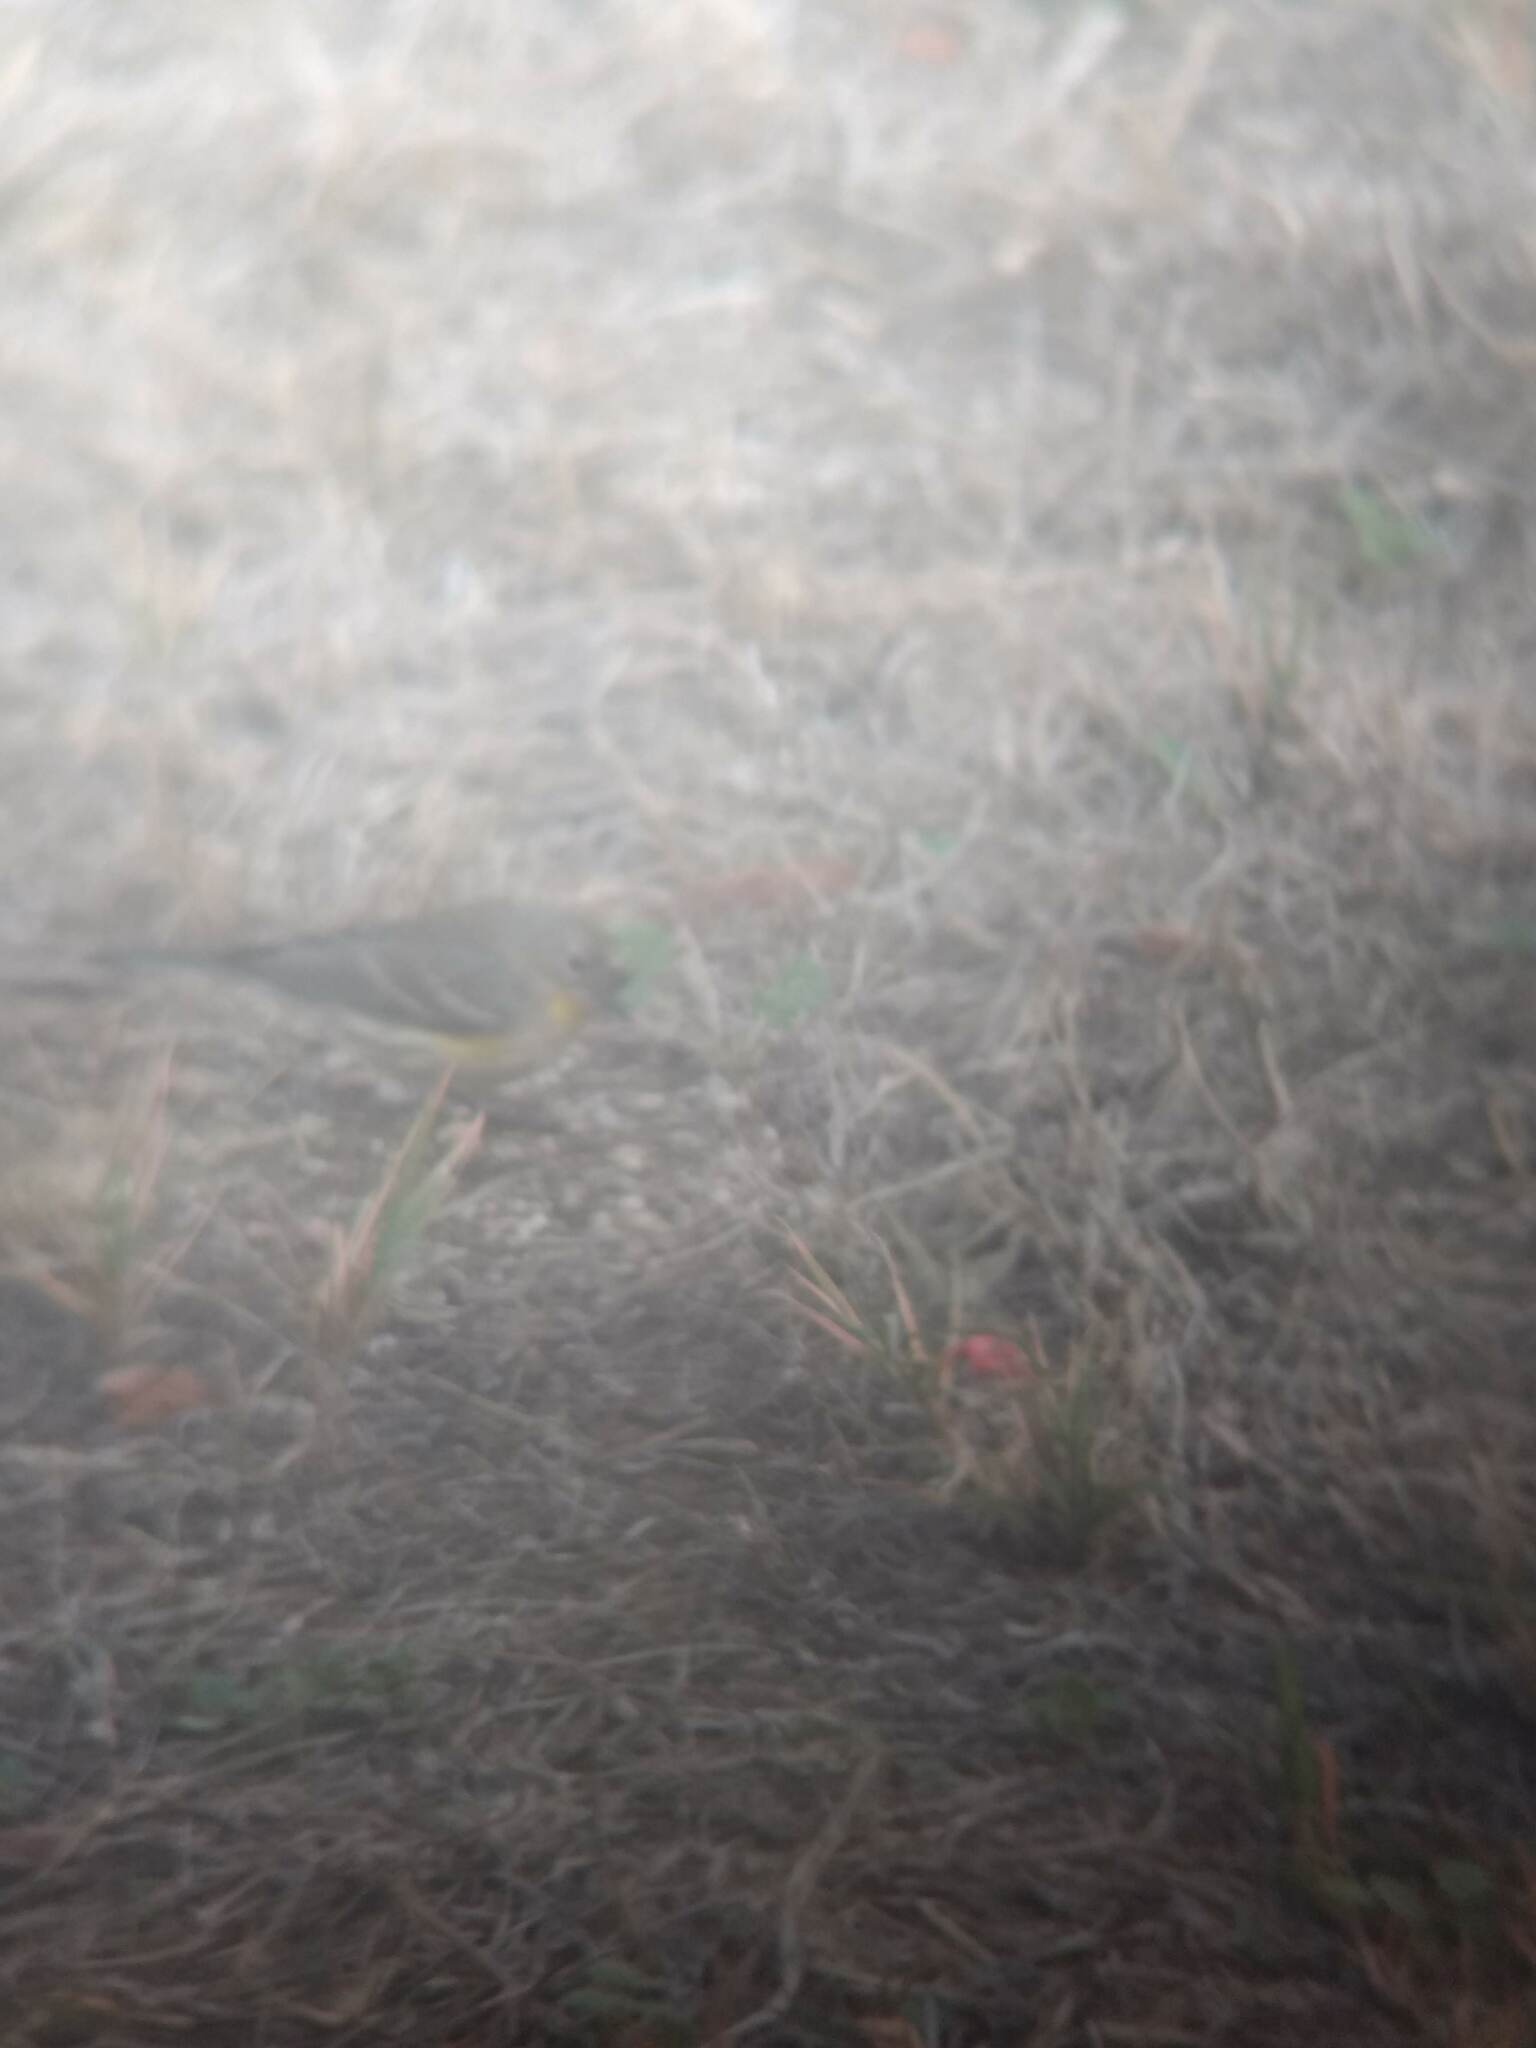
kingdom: Animalia
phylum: Chordata
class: Aves
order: Passeriformes
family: Parulidae
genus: Setophaga
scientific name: Setophaga coronata
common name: Myrtle warbler
